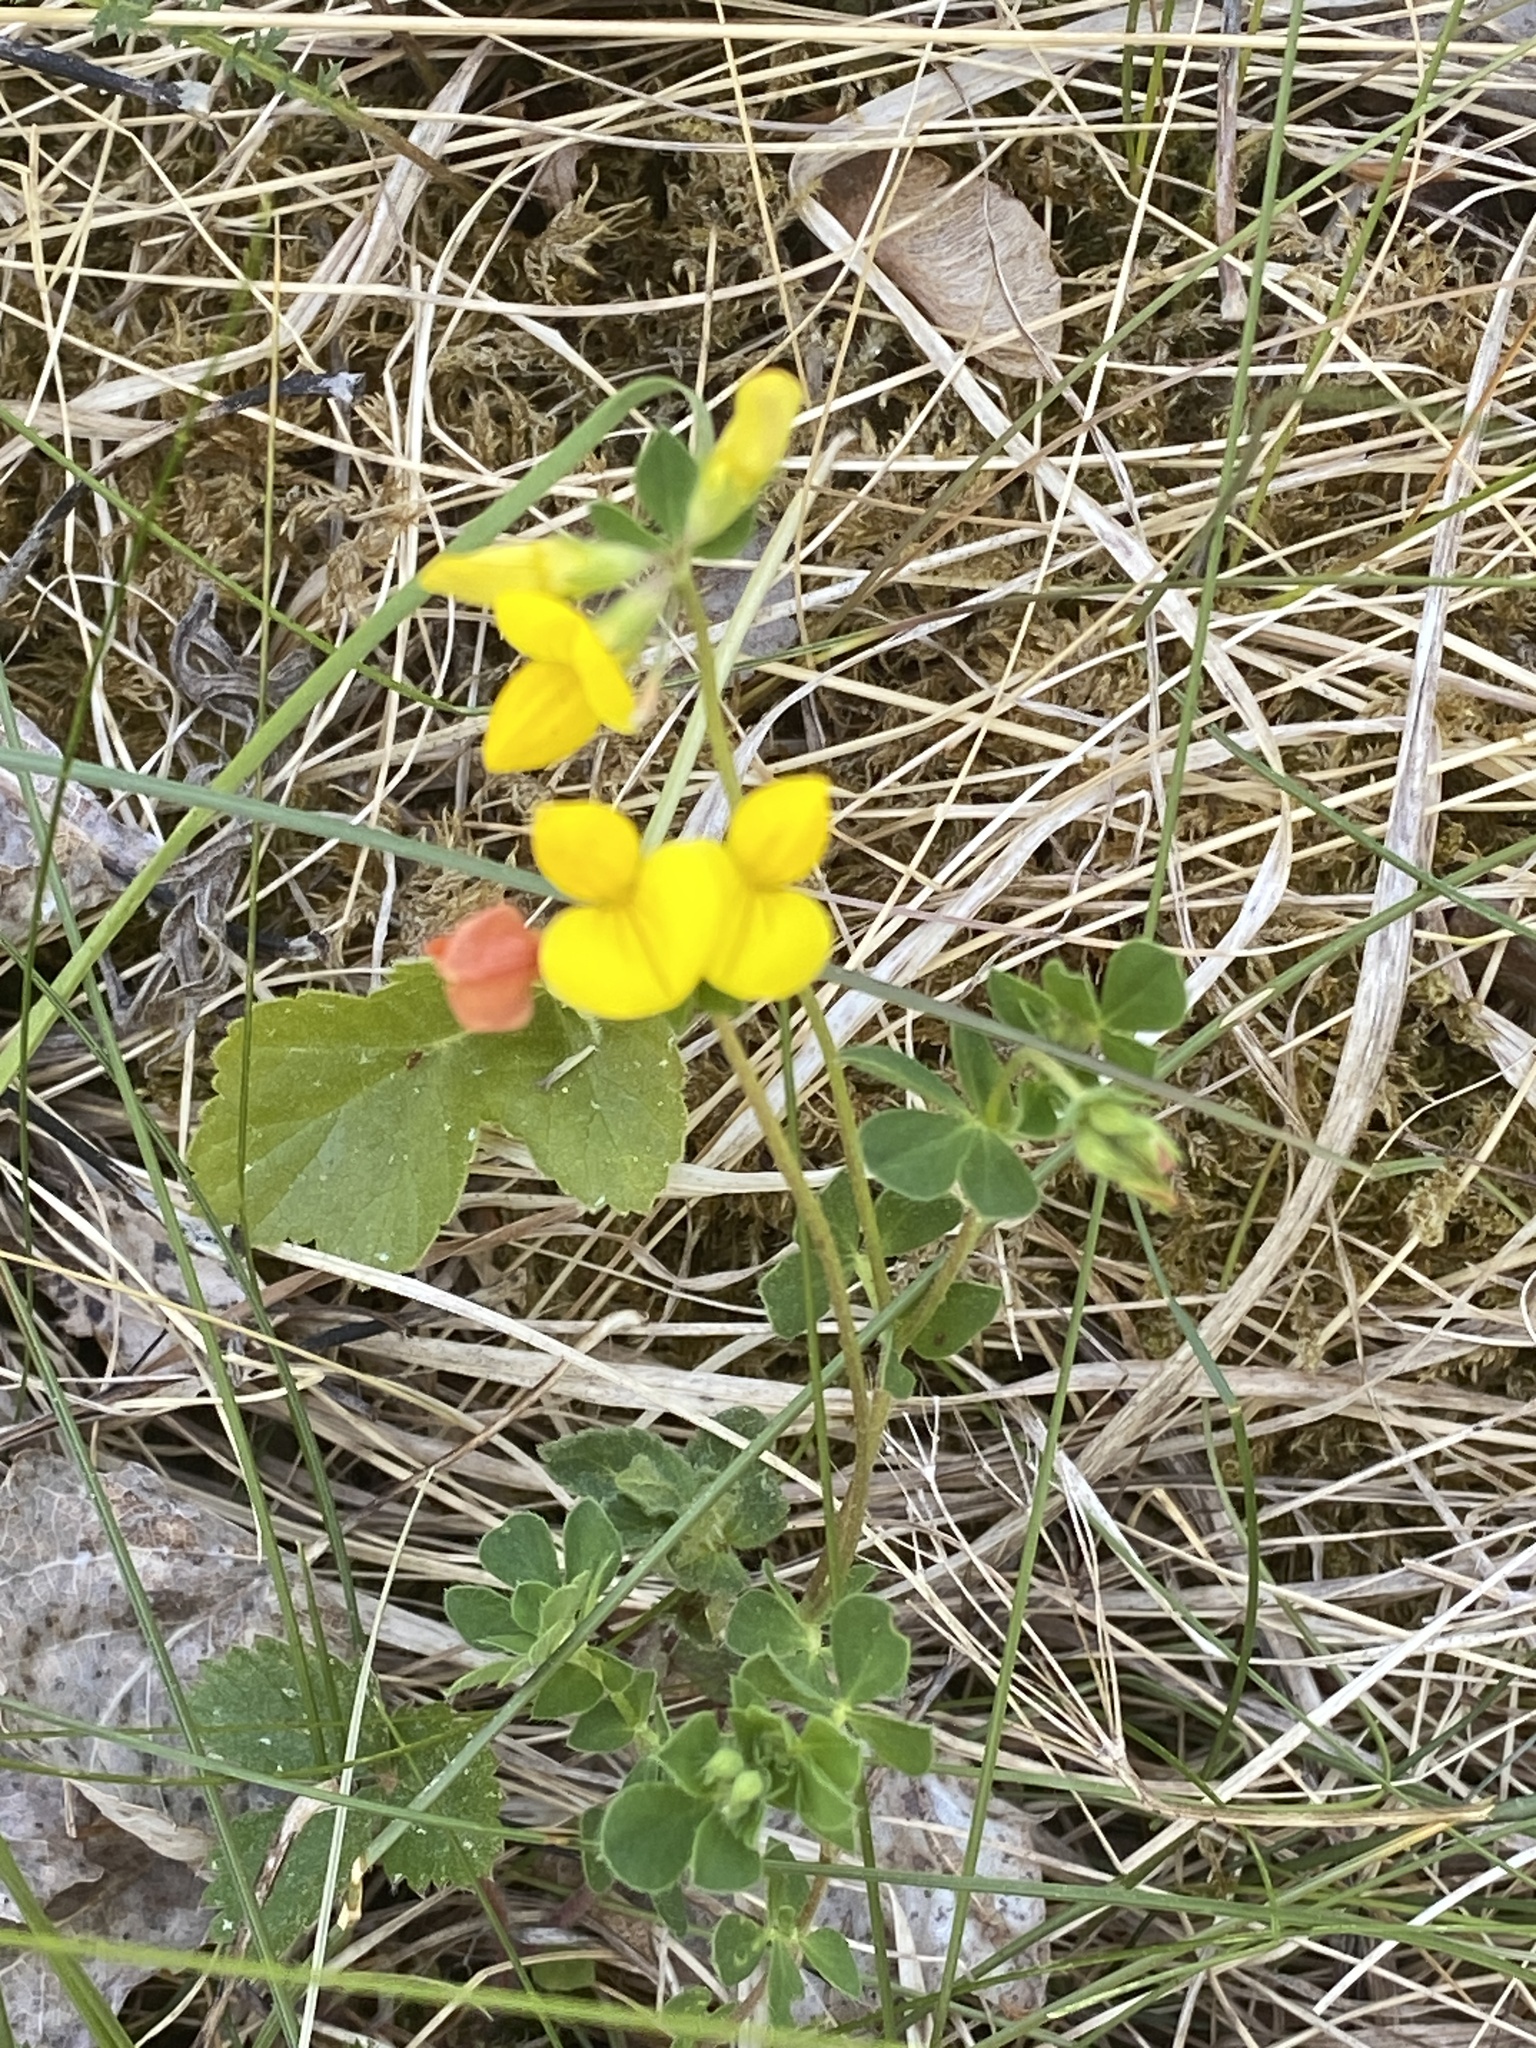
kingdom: Plantae
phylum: Tracheophyta
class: Magnoliopsida
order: Fabales
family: Fabaceae
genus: Lotus
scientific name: Lotus corniculatus
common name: Common bird's-foot-trefoil
